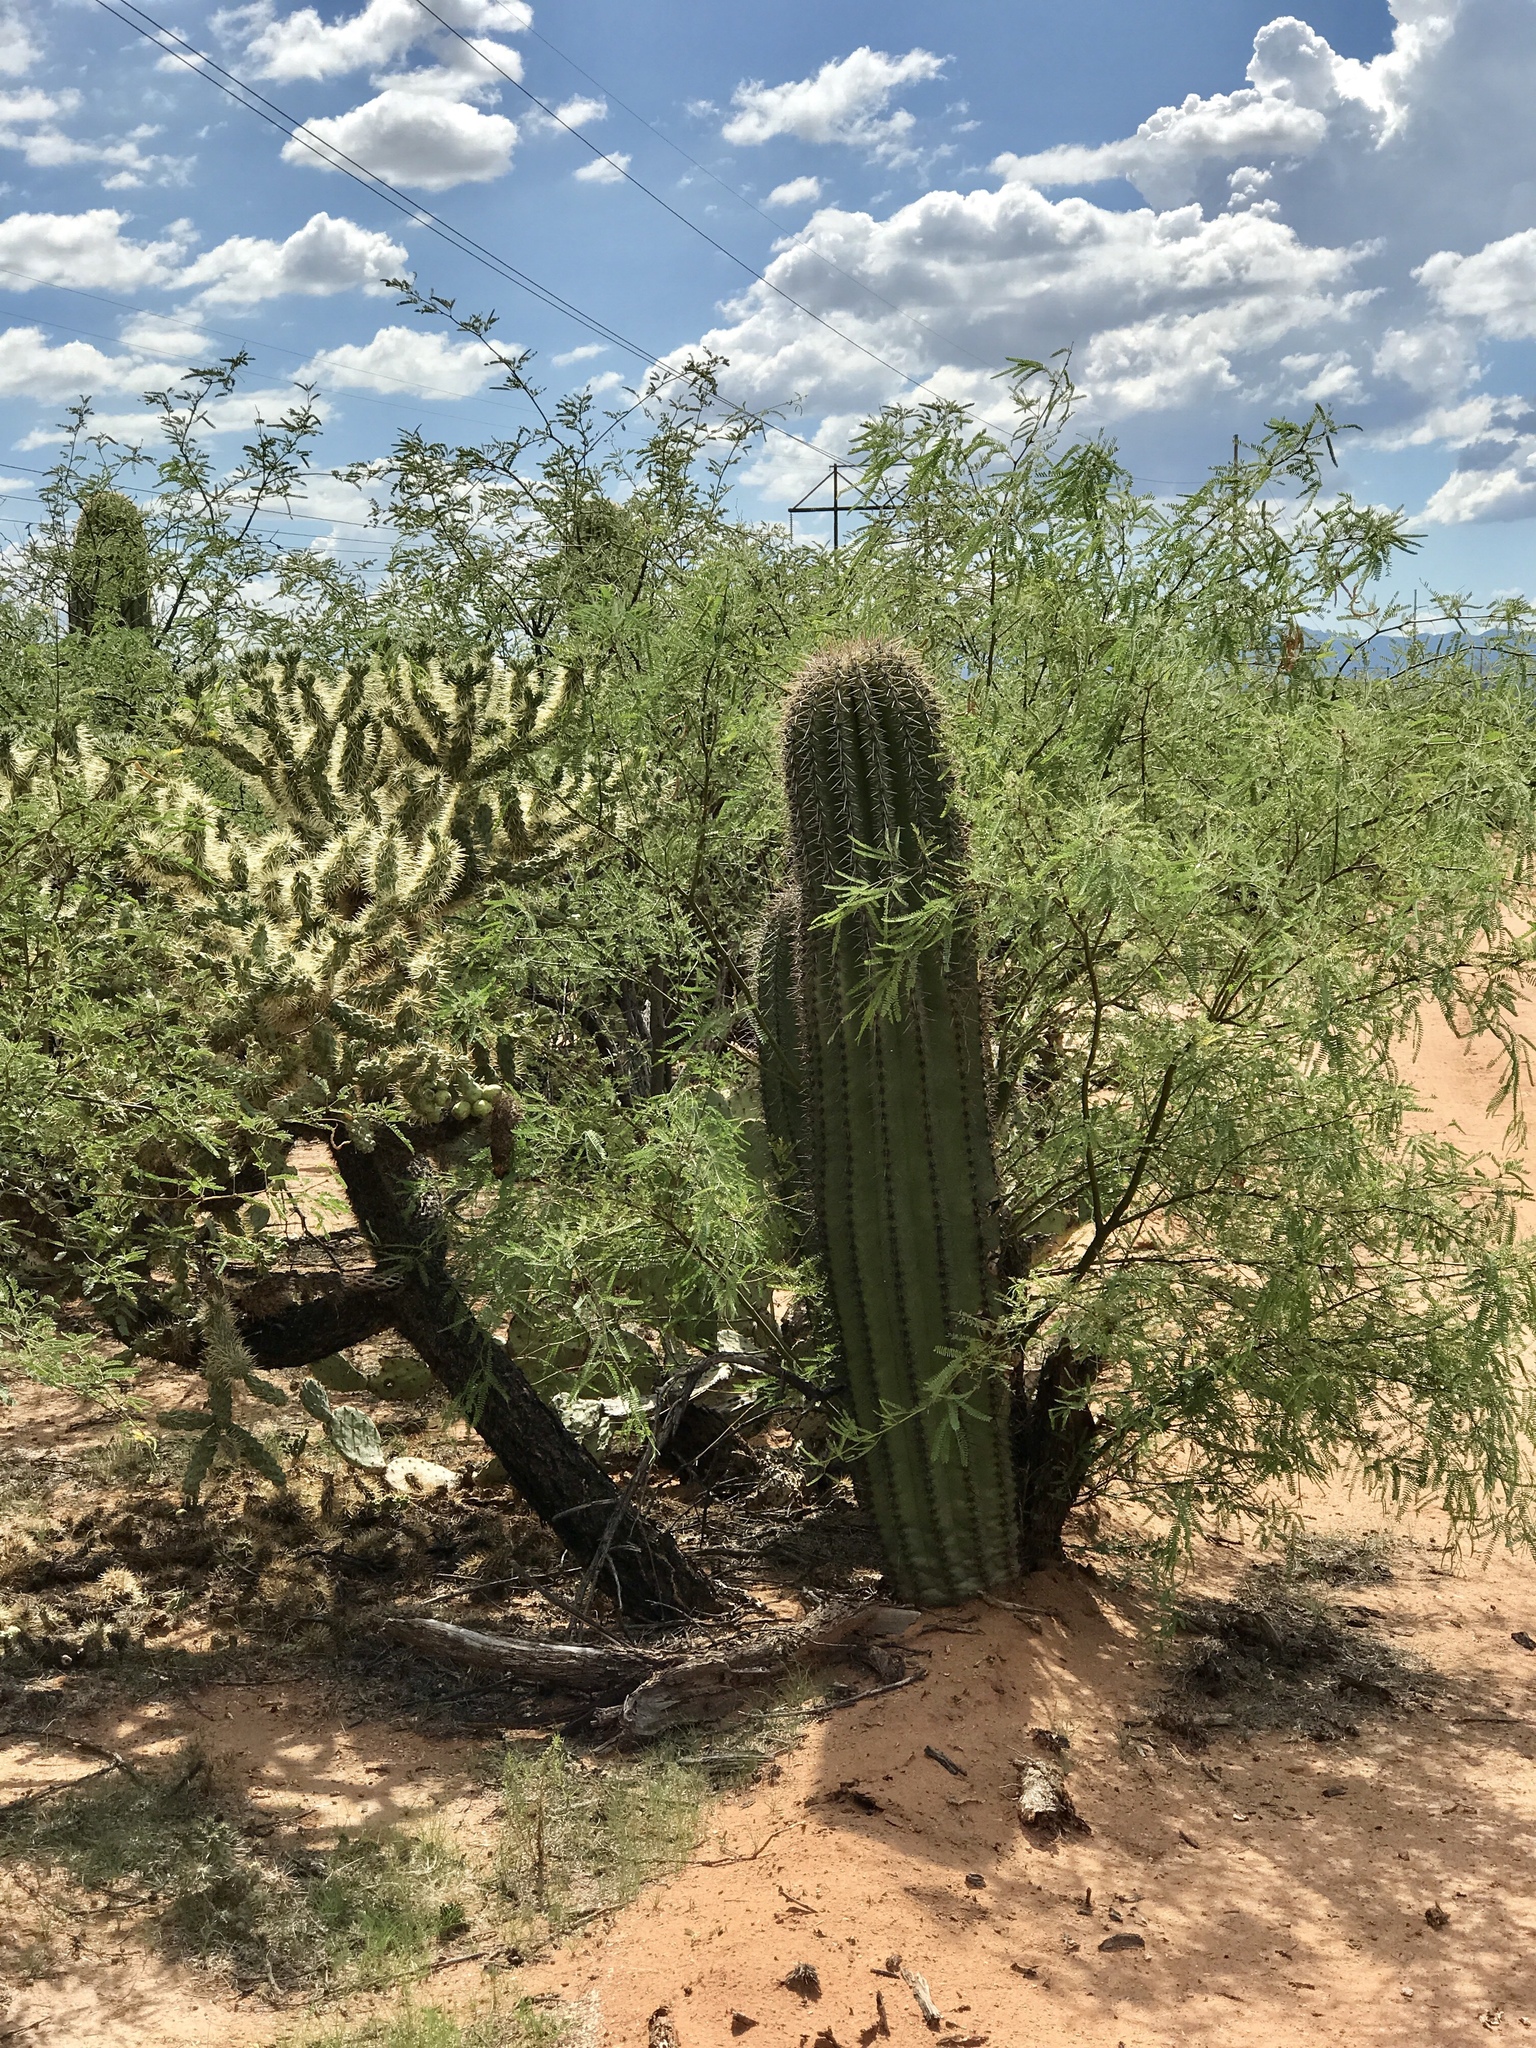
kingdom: Plantae
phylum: Tracheophyta
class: Magnoliopsida
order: Caryophyllales
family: Cactaceae
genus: Carnegiea
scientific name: Carnegiea gigantea
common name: Saguaro
